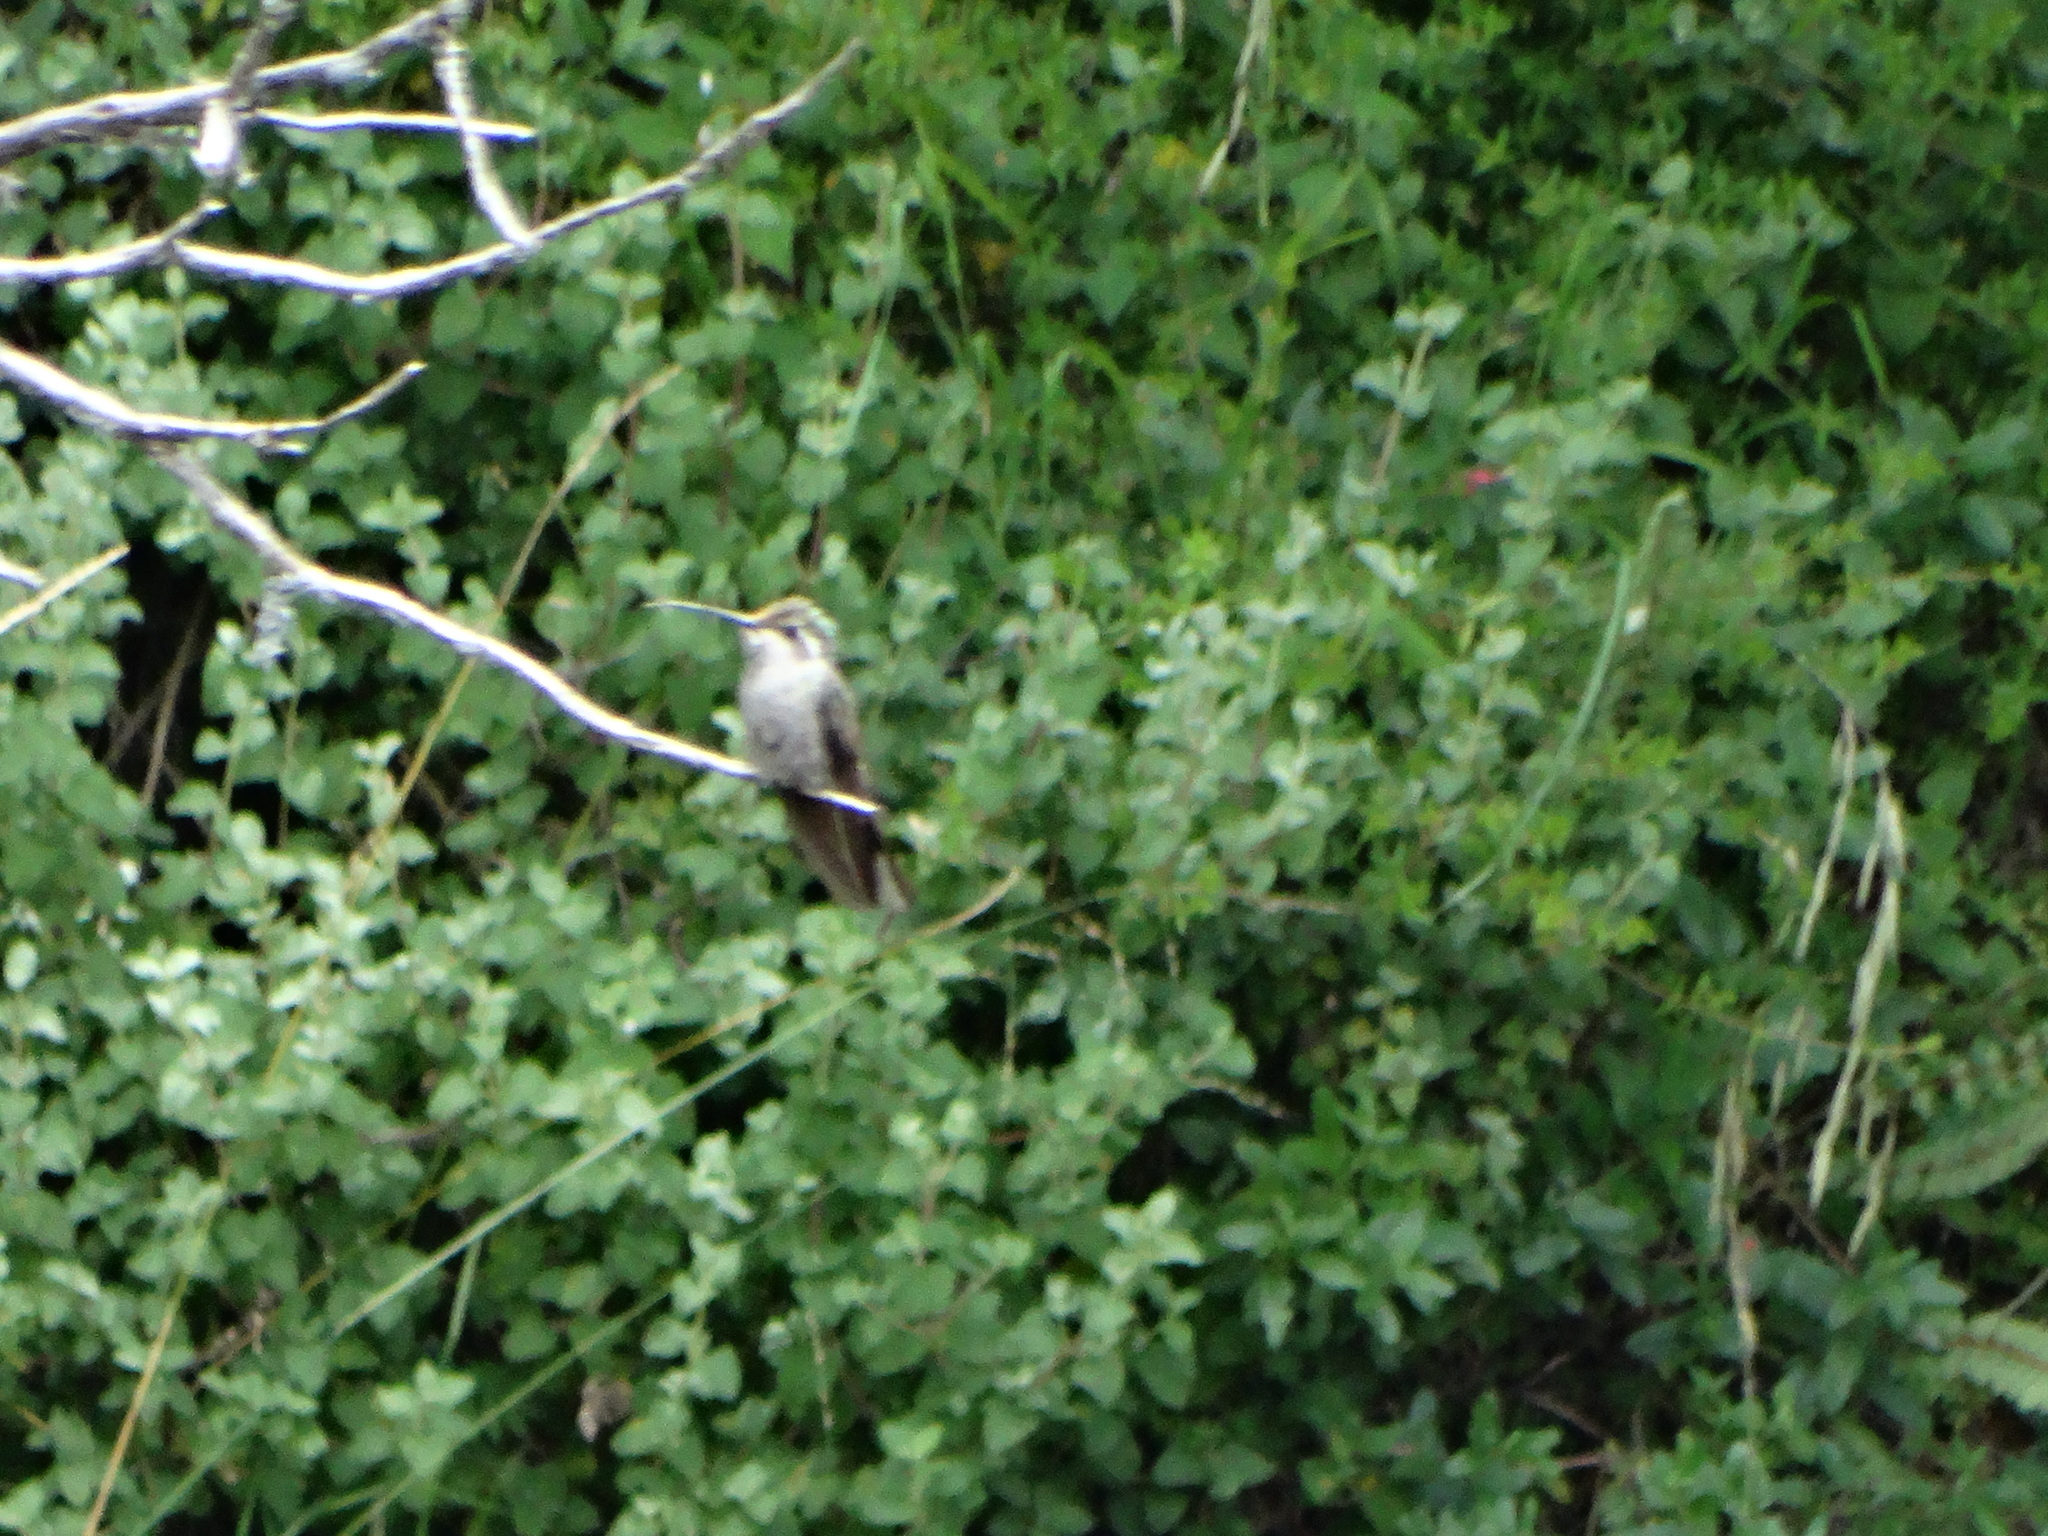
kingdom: Animalia
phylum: Chordata
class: Aves
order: Apodiformes
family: Trochilidae
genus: Cynanthus
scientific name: Cynanthus latirostris
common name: Broad-billed hummingbird
